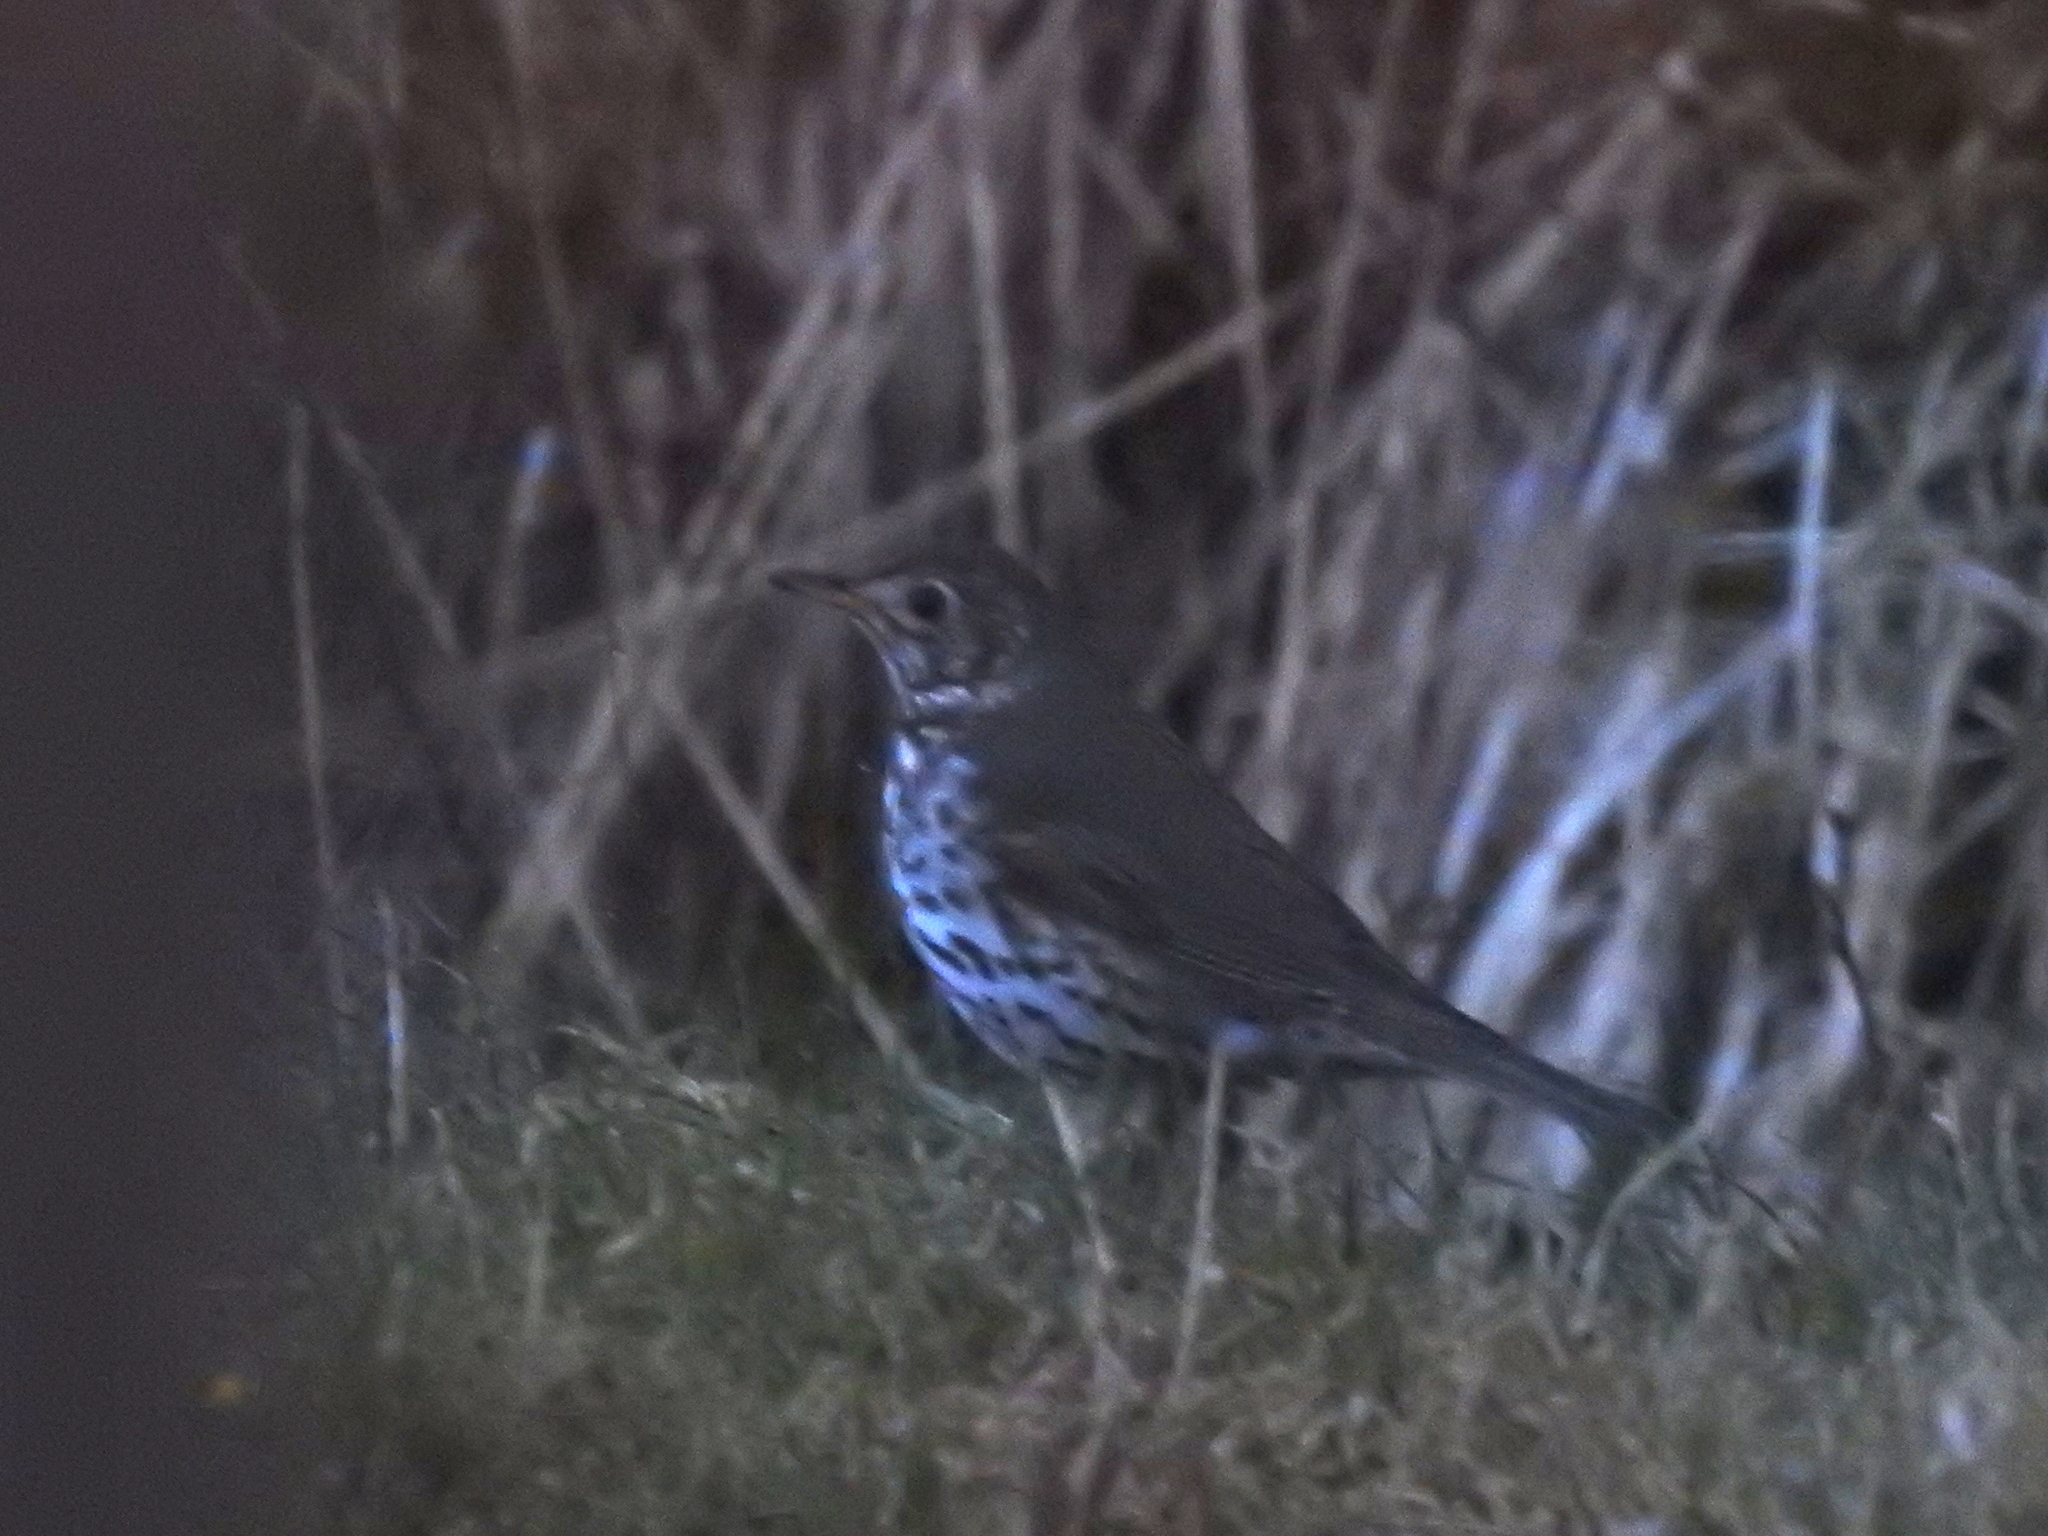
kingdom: Animalia
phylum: Chordata
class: Aves
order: Passeriformes
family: Turdidae
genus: Turdus
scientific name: Turdus philomelos
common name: Song thrush
